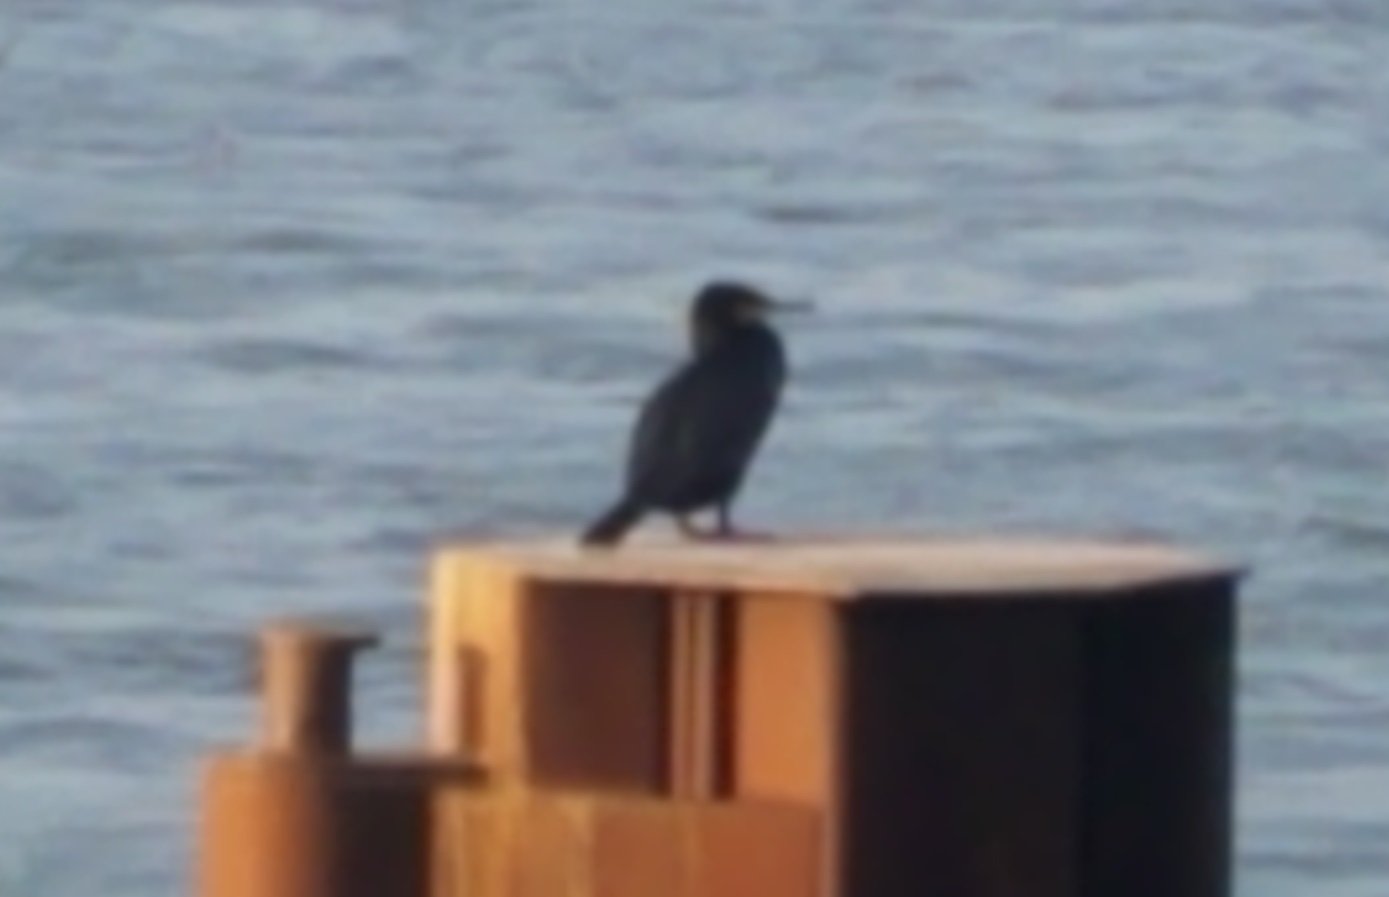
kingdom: Animalia
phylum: Chordata
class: Aves
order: Suliformes
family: Phalacrocoracidae
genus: Phalacrocorax
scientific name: Phalacrocorax carbo
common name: Great cormorant
